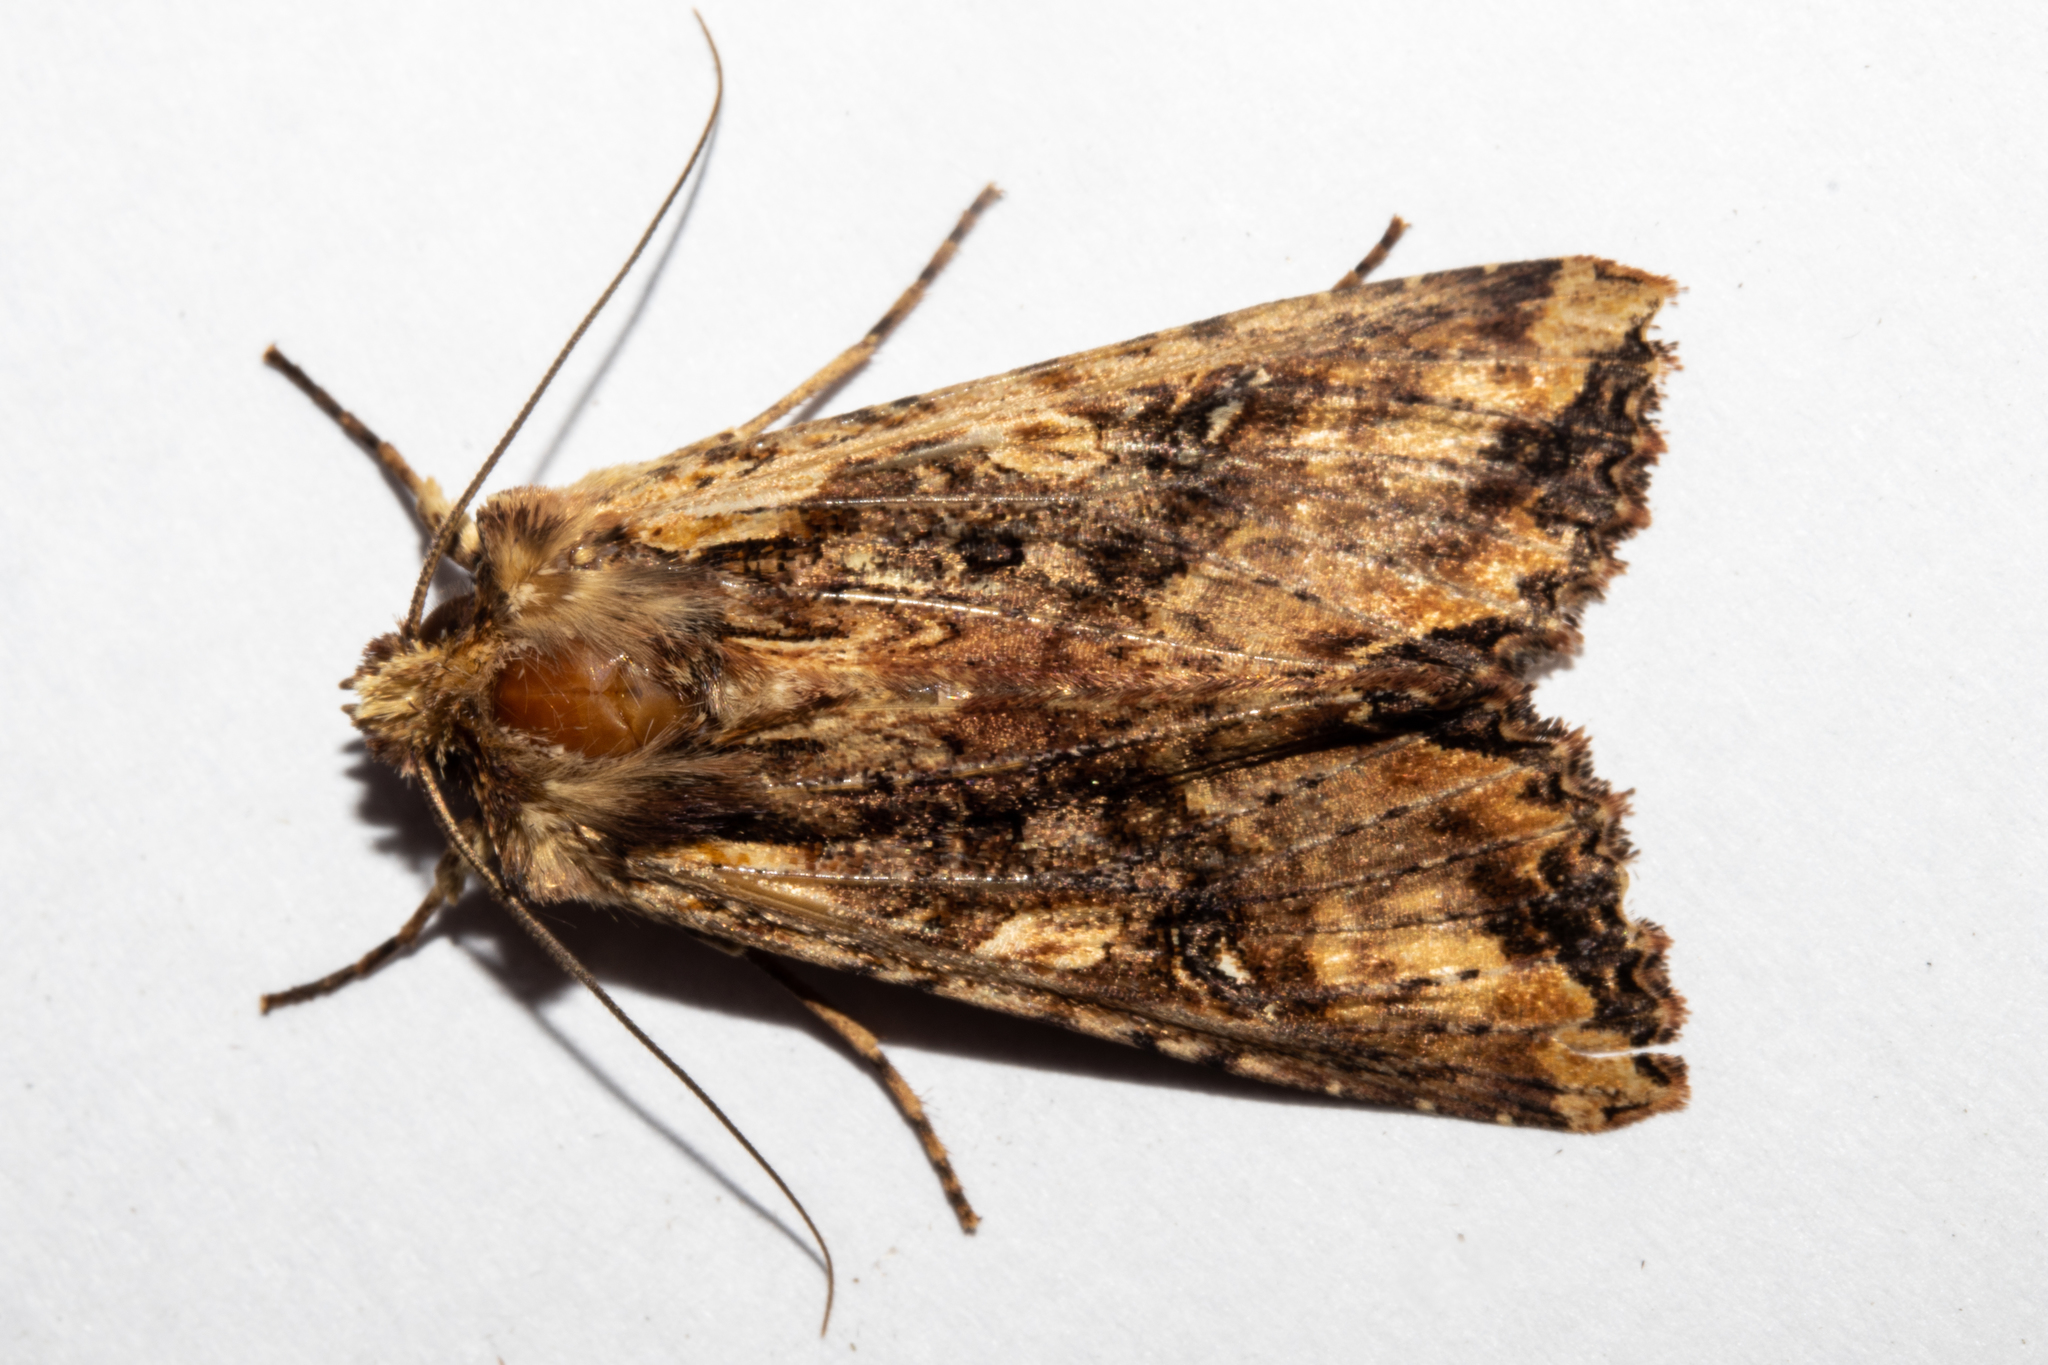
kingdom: Animalia
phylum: Arthropoda
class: Insecta
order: Lepidoptera
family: Noctuidae
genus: Meterana
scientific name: Meterana stipata
